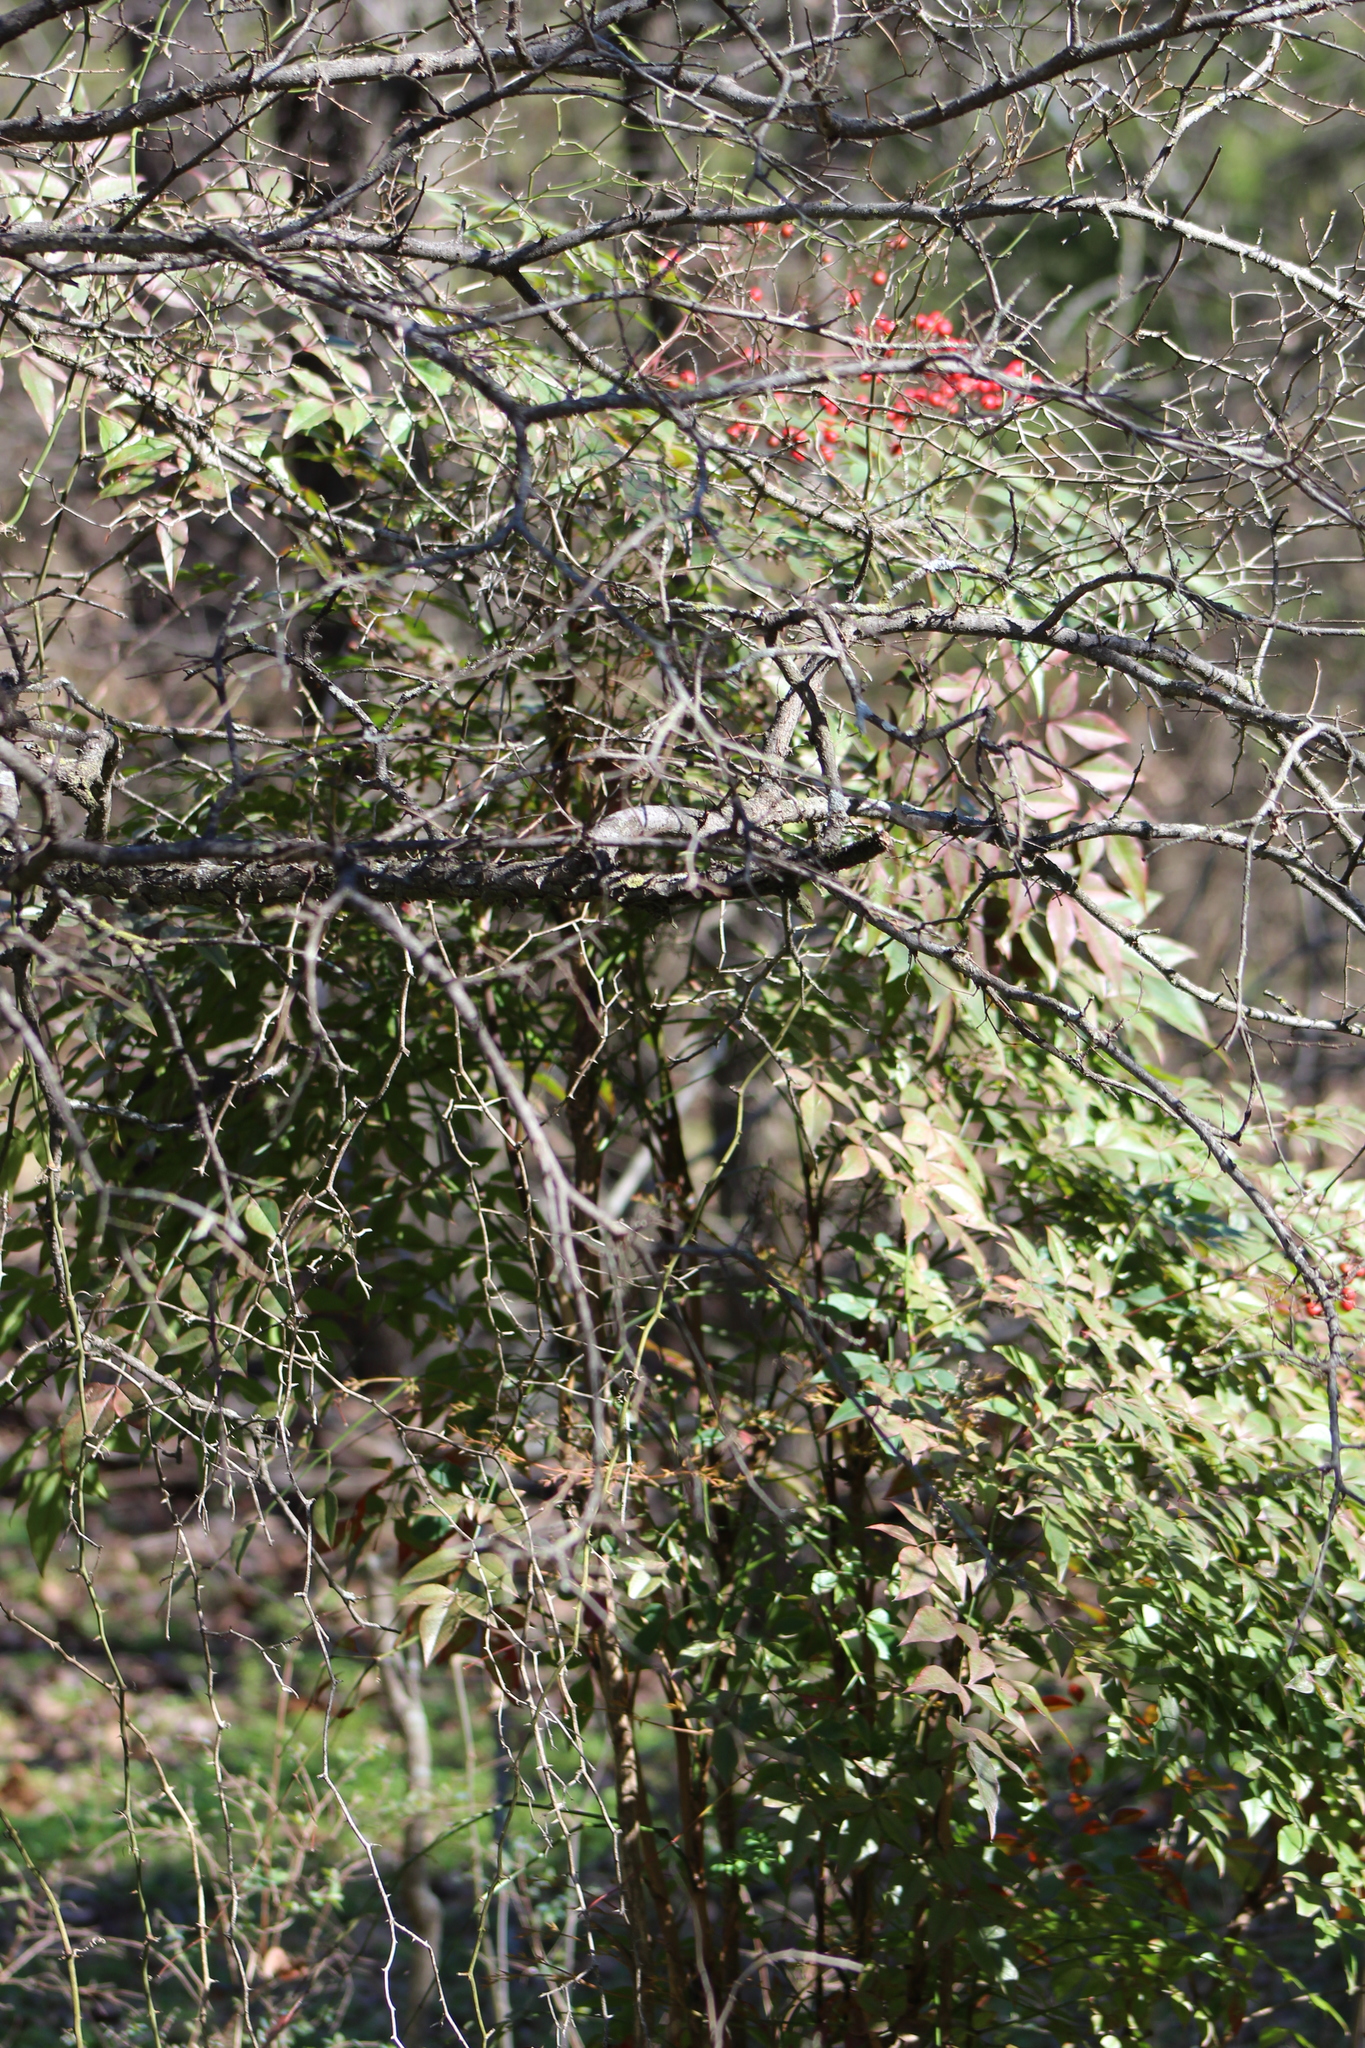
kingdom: Plantae
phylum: Tracheophyta
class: Magnoliopsida
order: Ranunculales
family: Berberidaceae
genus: Nandina
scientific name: Nandina domestica
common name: Sacred bamboo
